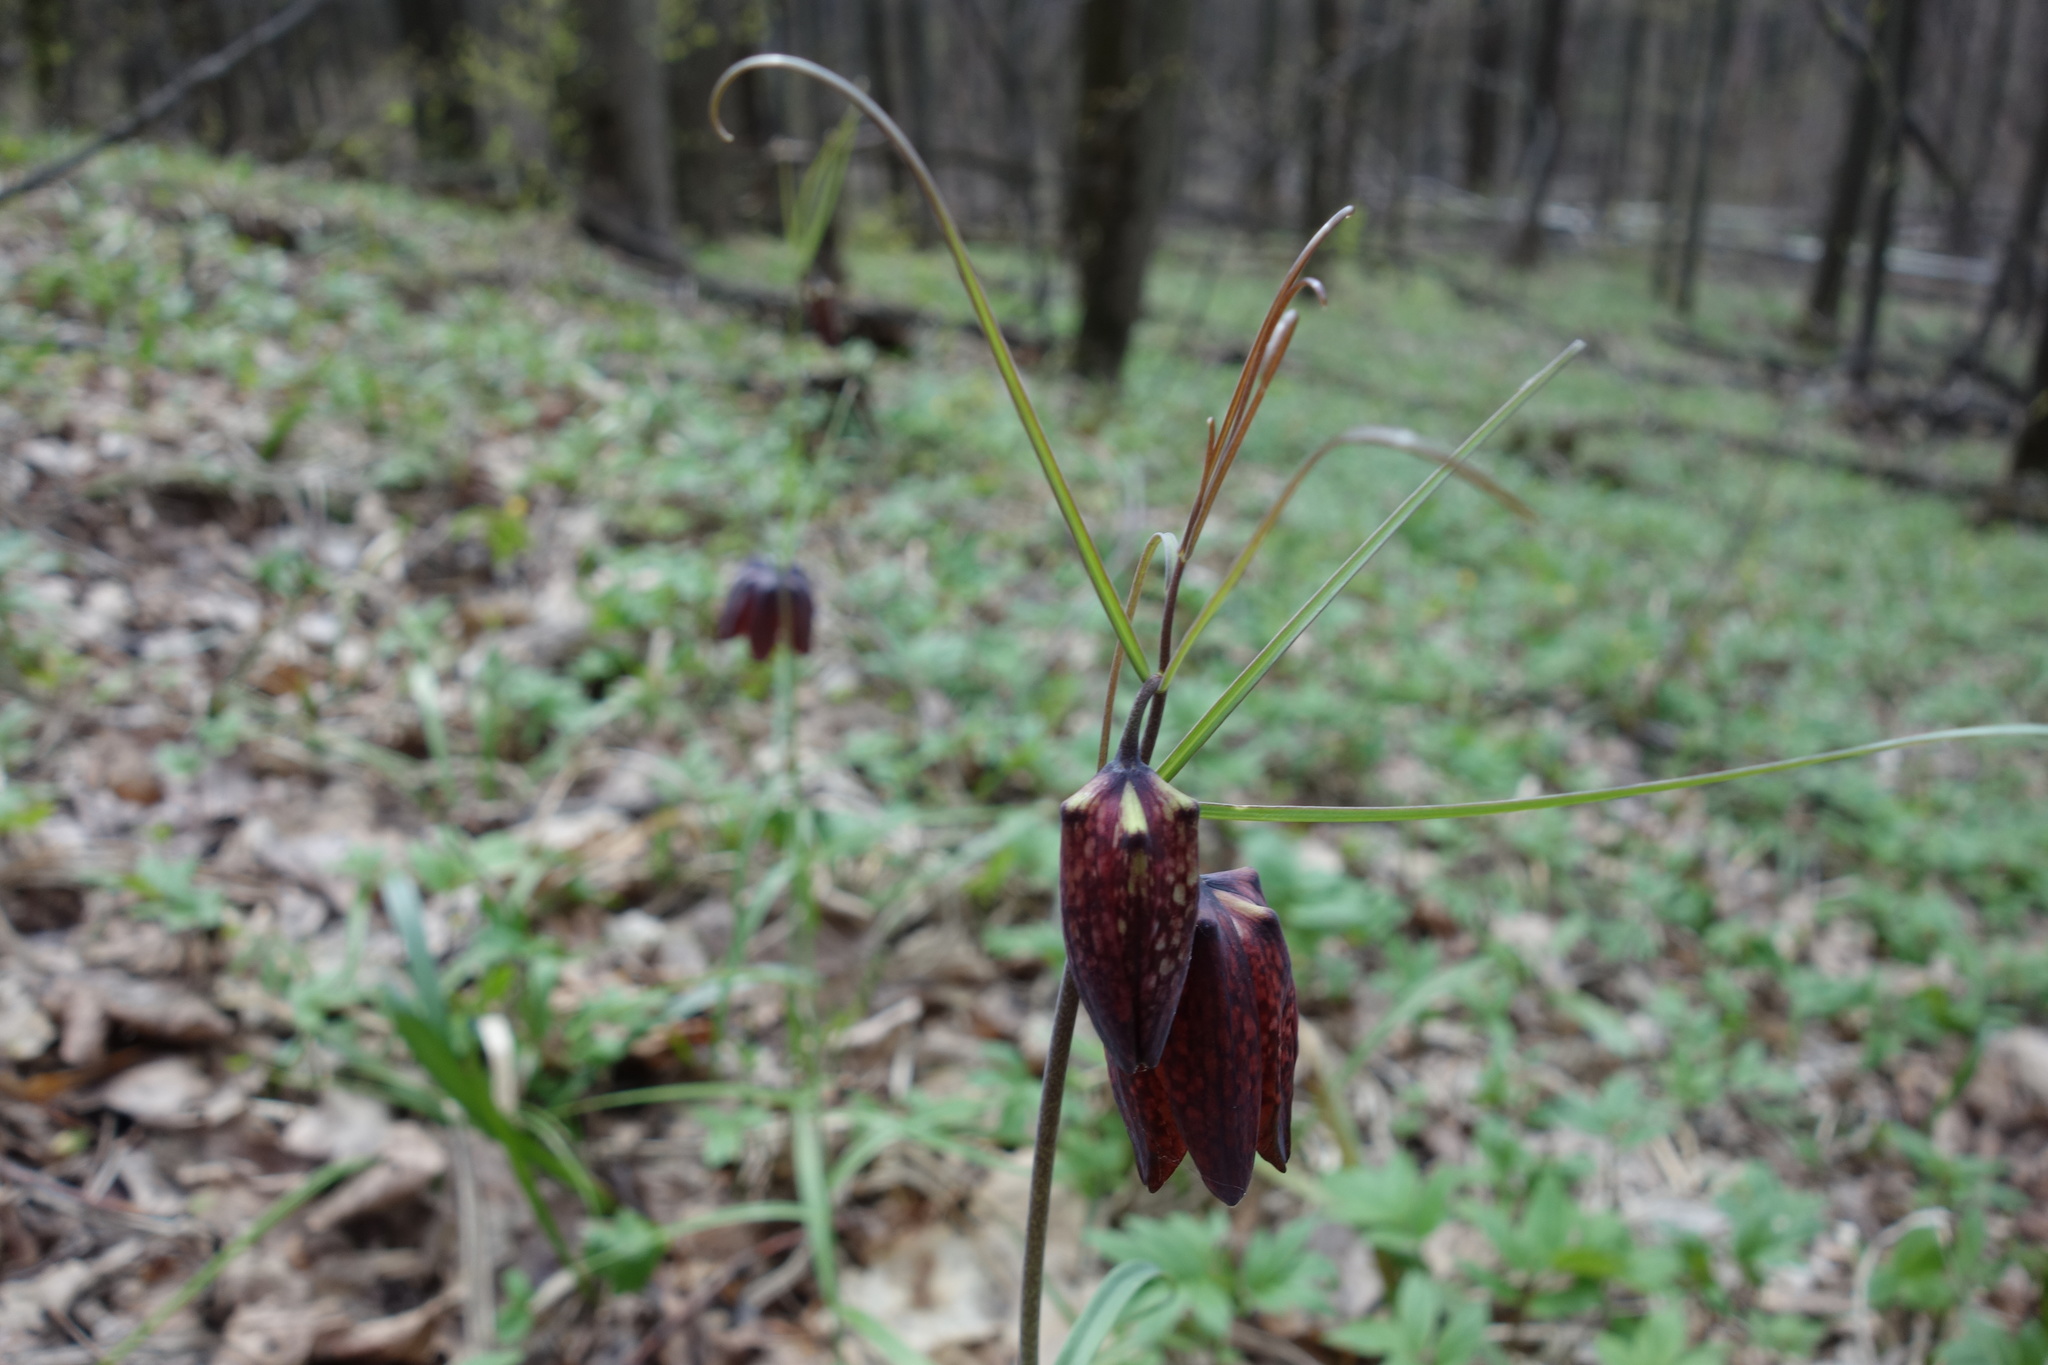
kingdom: Plantae
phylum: Tracheophyta
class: Liliopsida
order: Liliales
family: Liliaceae
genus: Fritillaria
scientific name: Fritillaria ruthenica
